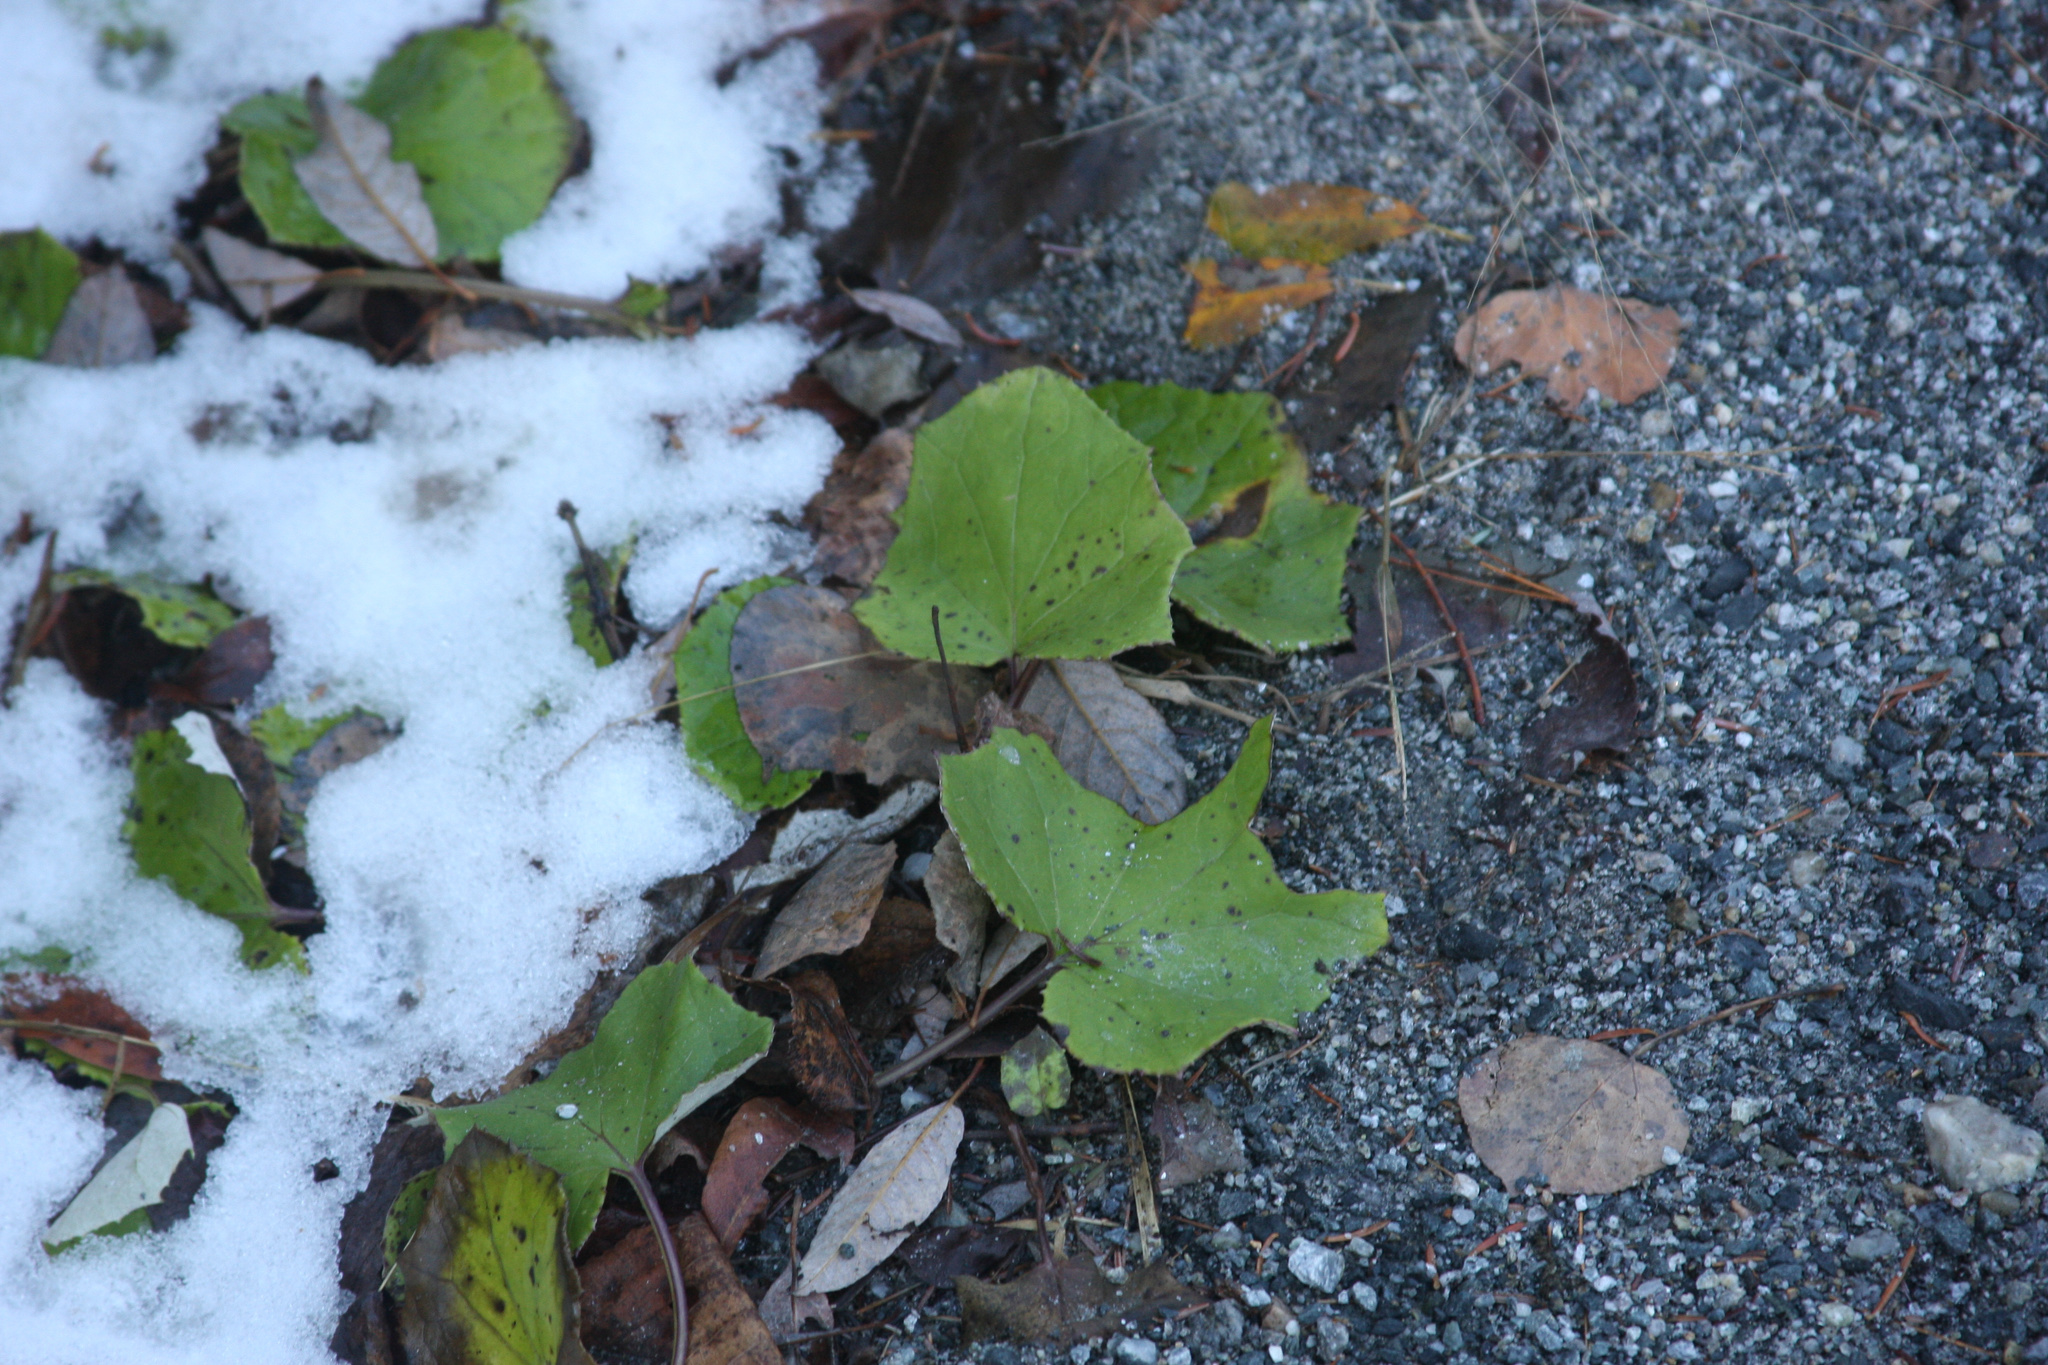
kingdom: Plantae
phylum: Tracheophyta
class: Magnoliopsida
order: Asterales
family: Asteraceae
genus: Tussilago
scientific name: Tussilago farfara
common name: Coltsfoot
